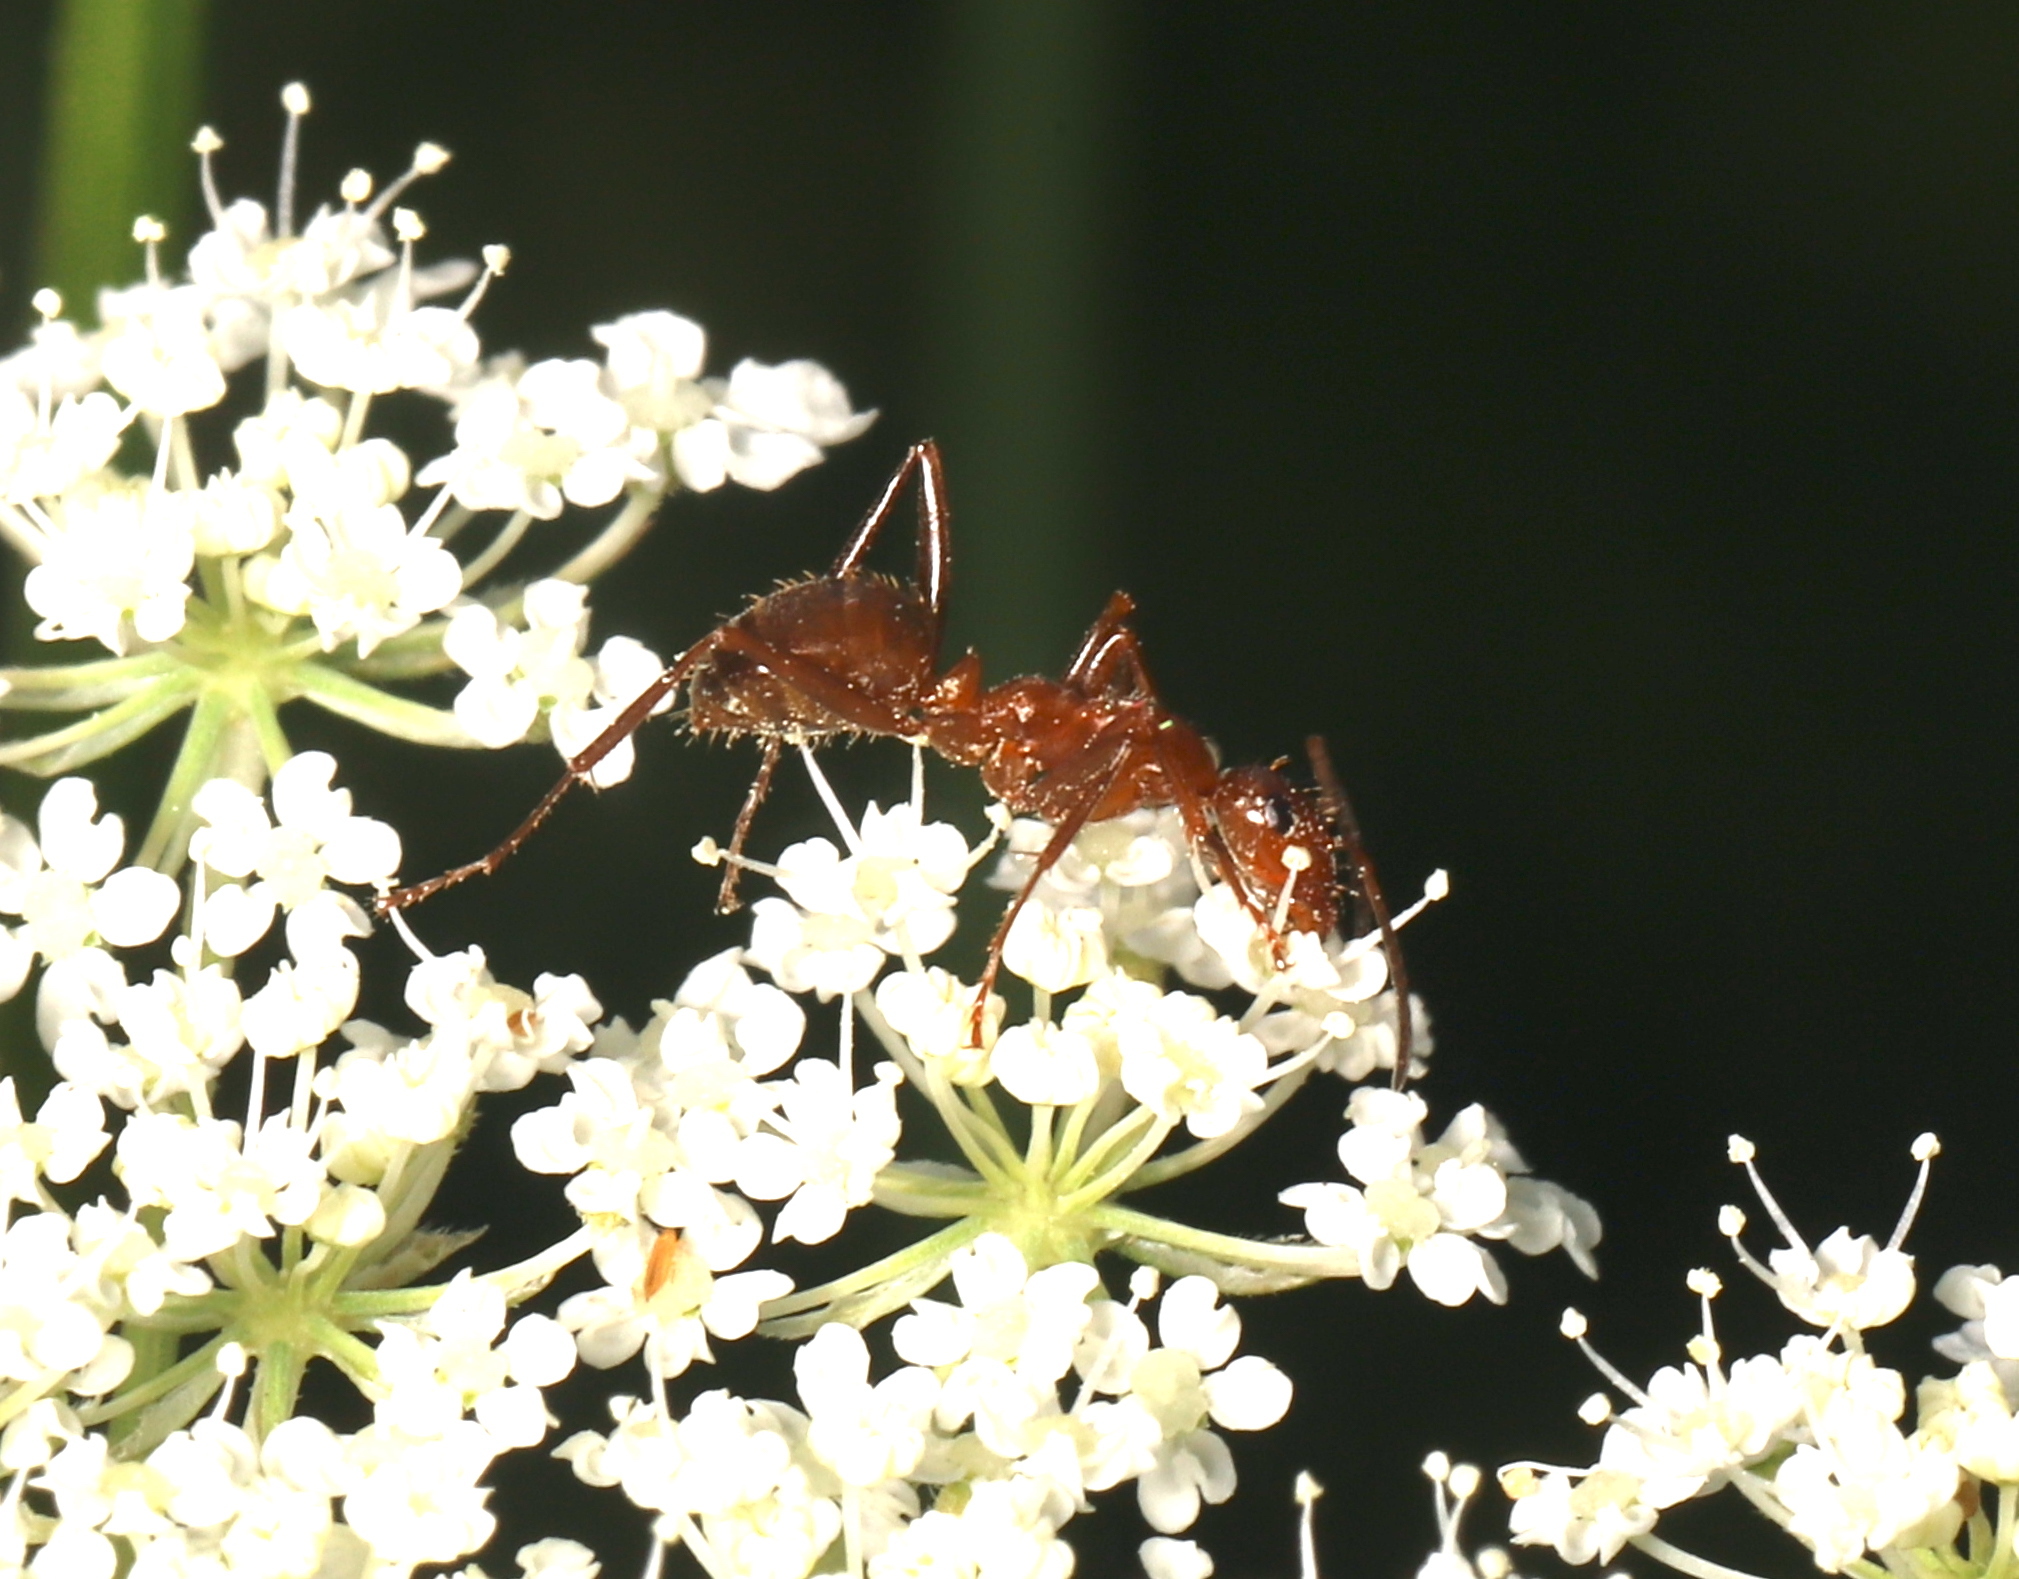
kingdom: Animalia
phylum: Arthropoda
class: Insecta
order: Hymenoptera
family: Formicidae
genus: Formica
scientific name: Formica incerta
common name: Uncertain field ant
